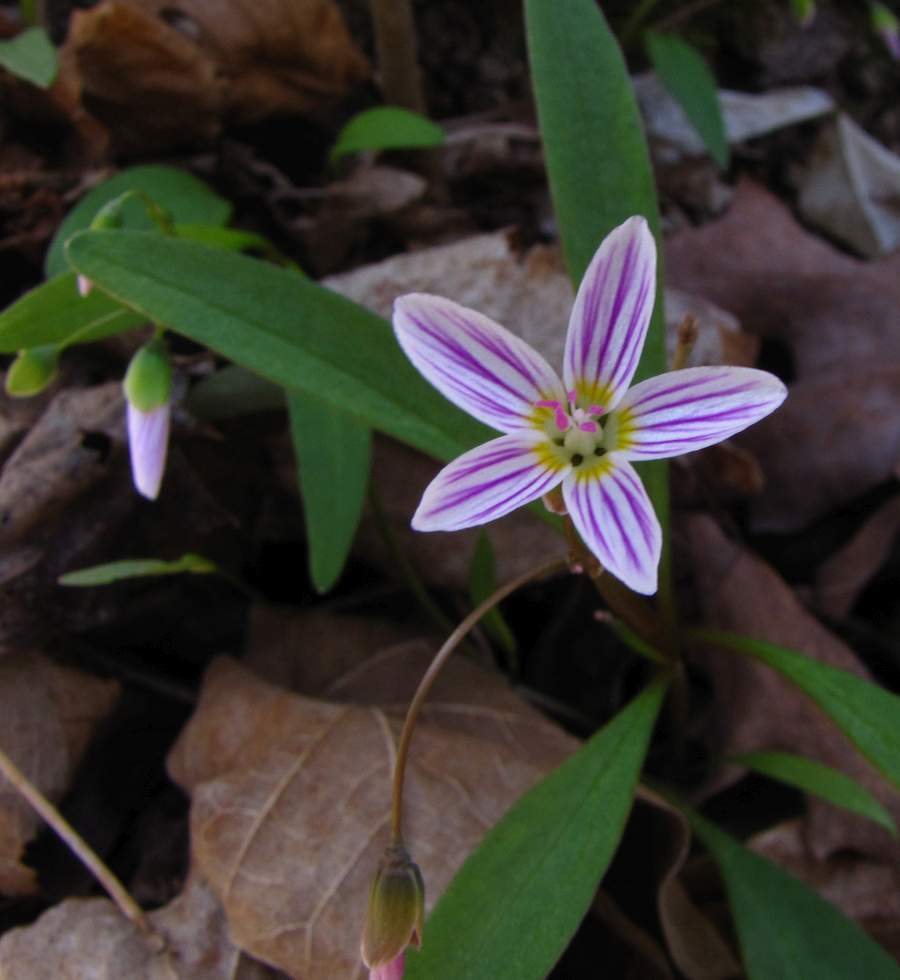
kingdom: Plantae
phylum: Tracheophyta
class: Magnoliopsida
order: Caryophyllales
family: Montiaceae
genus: Claytonia
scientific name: Claytonia caroliniana
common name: Carolina spring beauty
